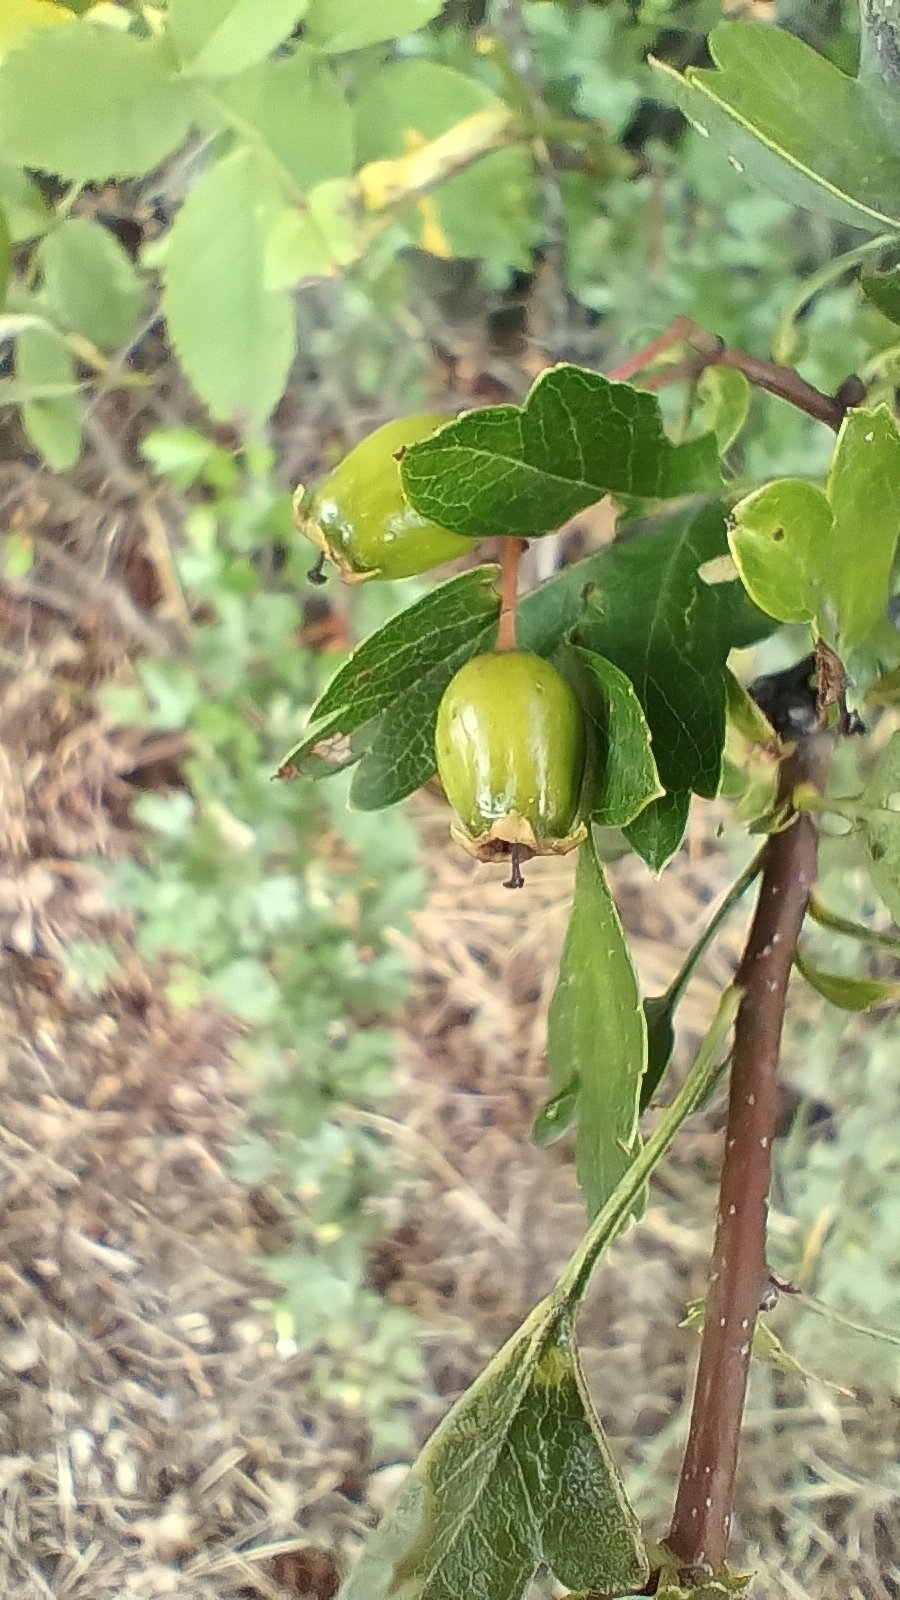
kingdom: Plantae
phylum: Tracheophyta
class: Magnoliopsida
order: Rosales
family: Rosaceae
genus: Crataegus
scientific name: Crataegus monogyna
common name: Hawthorn
